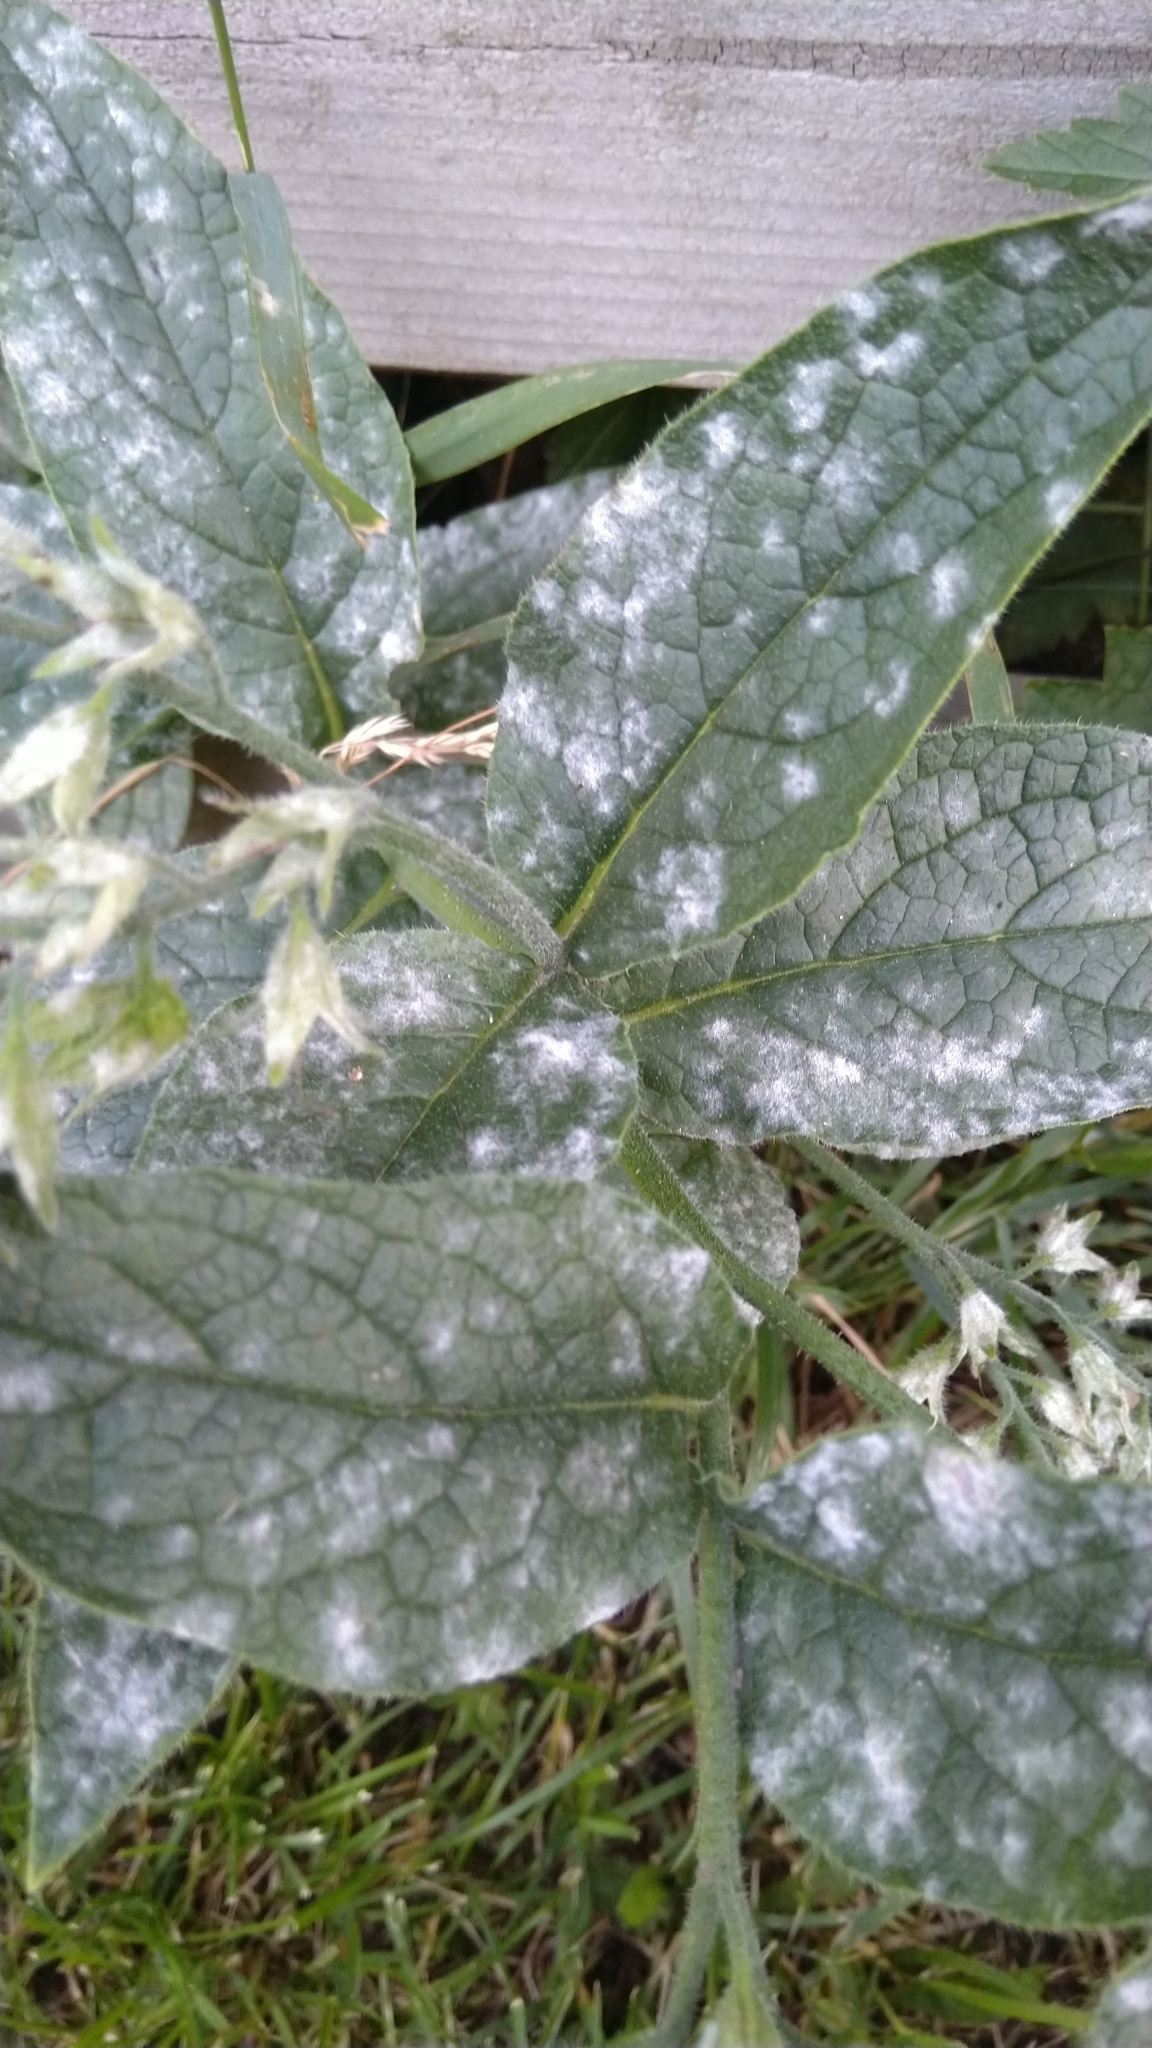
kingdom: Fungi
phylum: Ascomycota
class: Leotiomycetes
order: Helotiales
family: Erysiphaceae
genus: Golovinomyces
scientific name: Golovinomyces asperifoliorum
